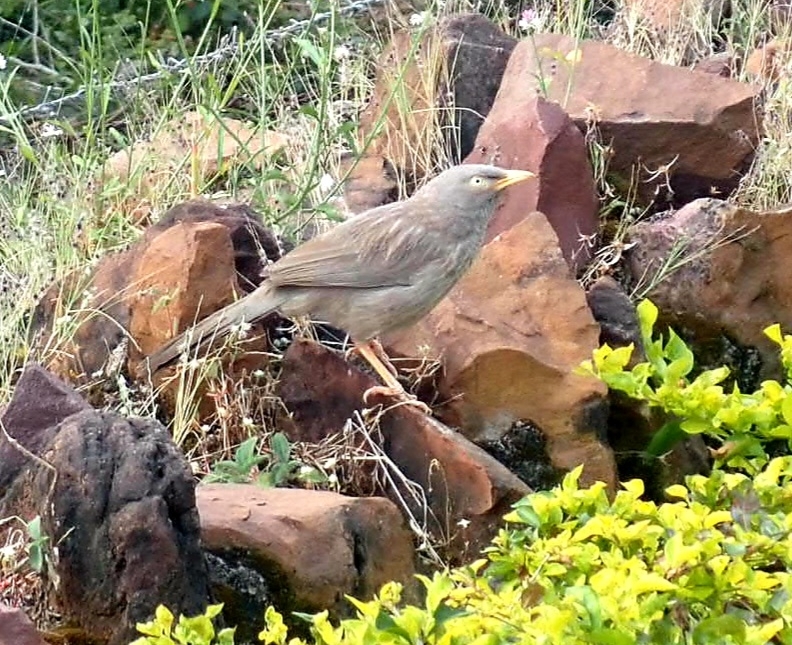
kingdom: Animalia
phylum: Chordata
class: Aves
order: Passeriformes
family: Leiothrichidae
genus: Turdoides
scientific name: Turdoides striata
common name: Jungle babbler
